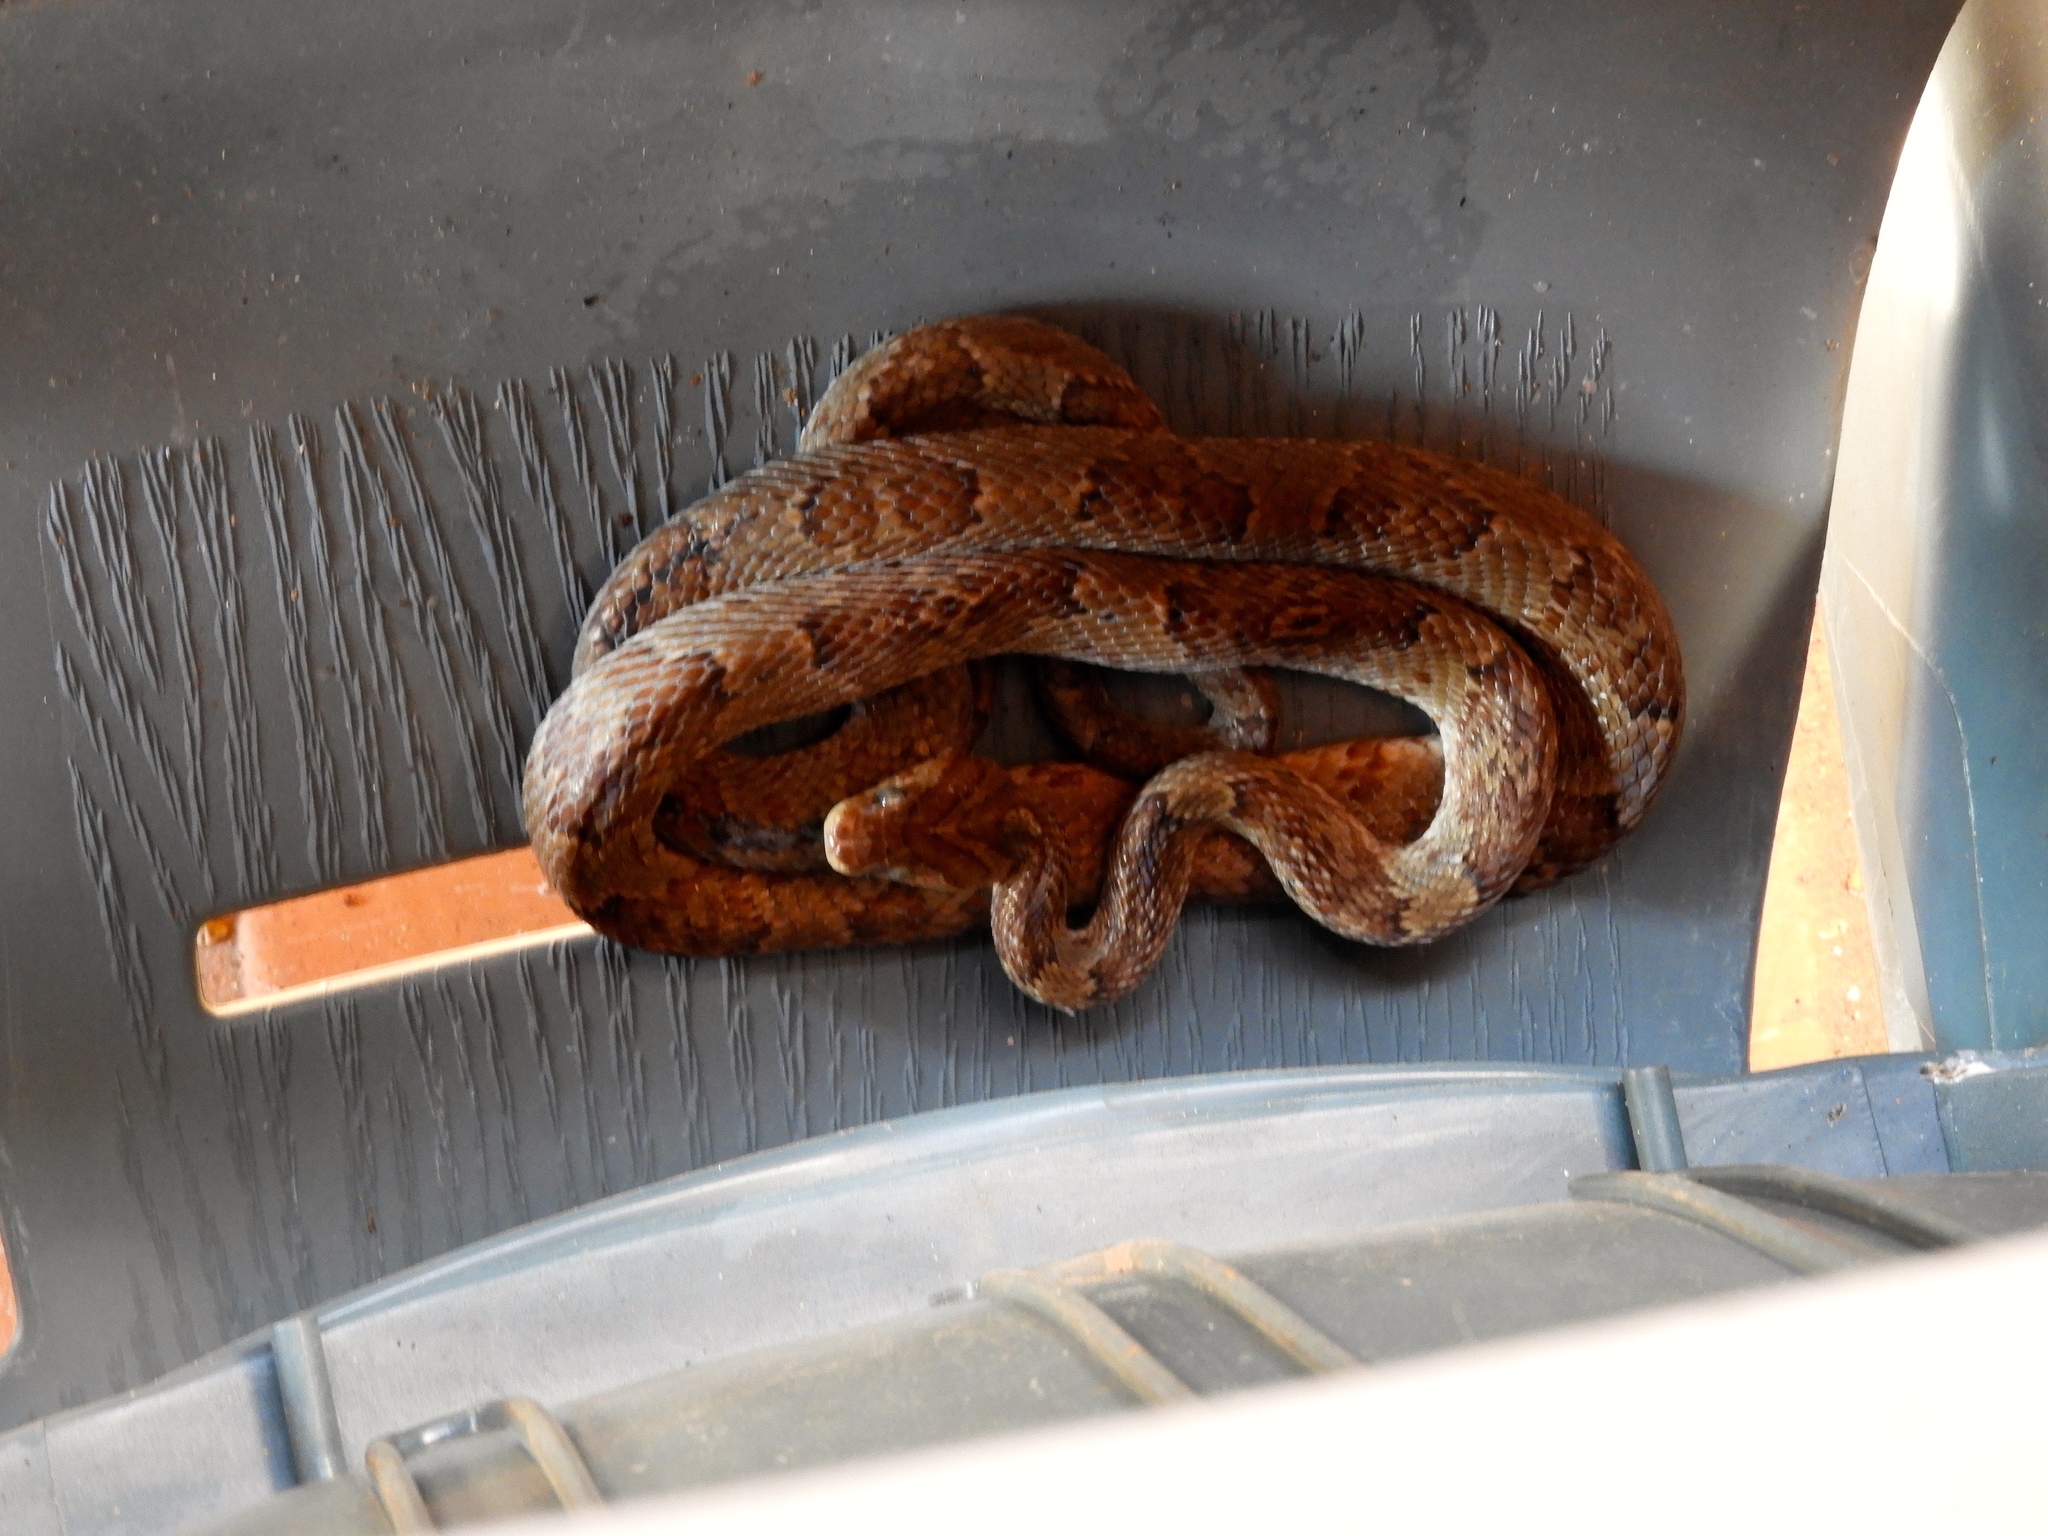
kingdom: Animalia
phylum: Chordata
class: Squamata
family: Colubridae
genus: Trimorphodon
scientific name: Trimorphodon paucimaculatus
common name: Sinaloan lyresnake
